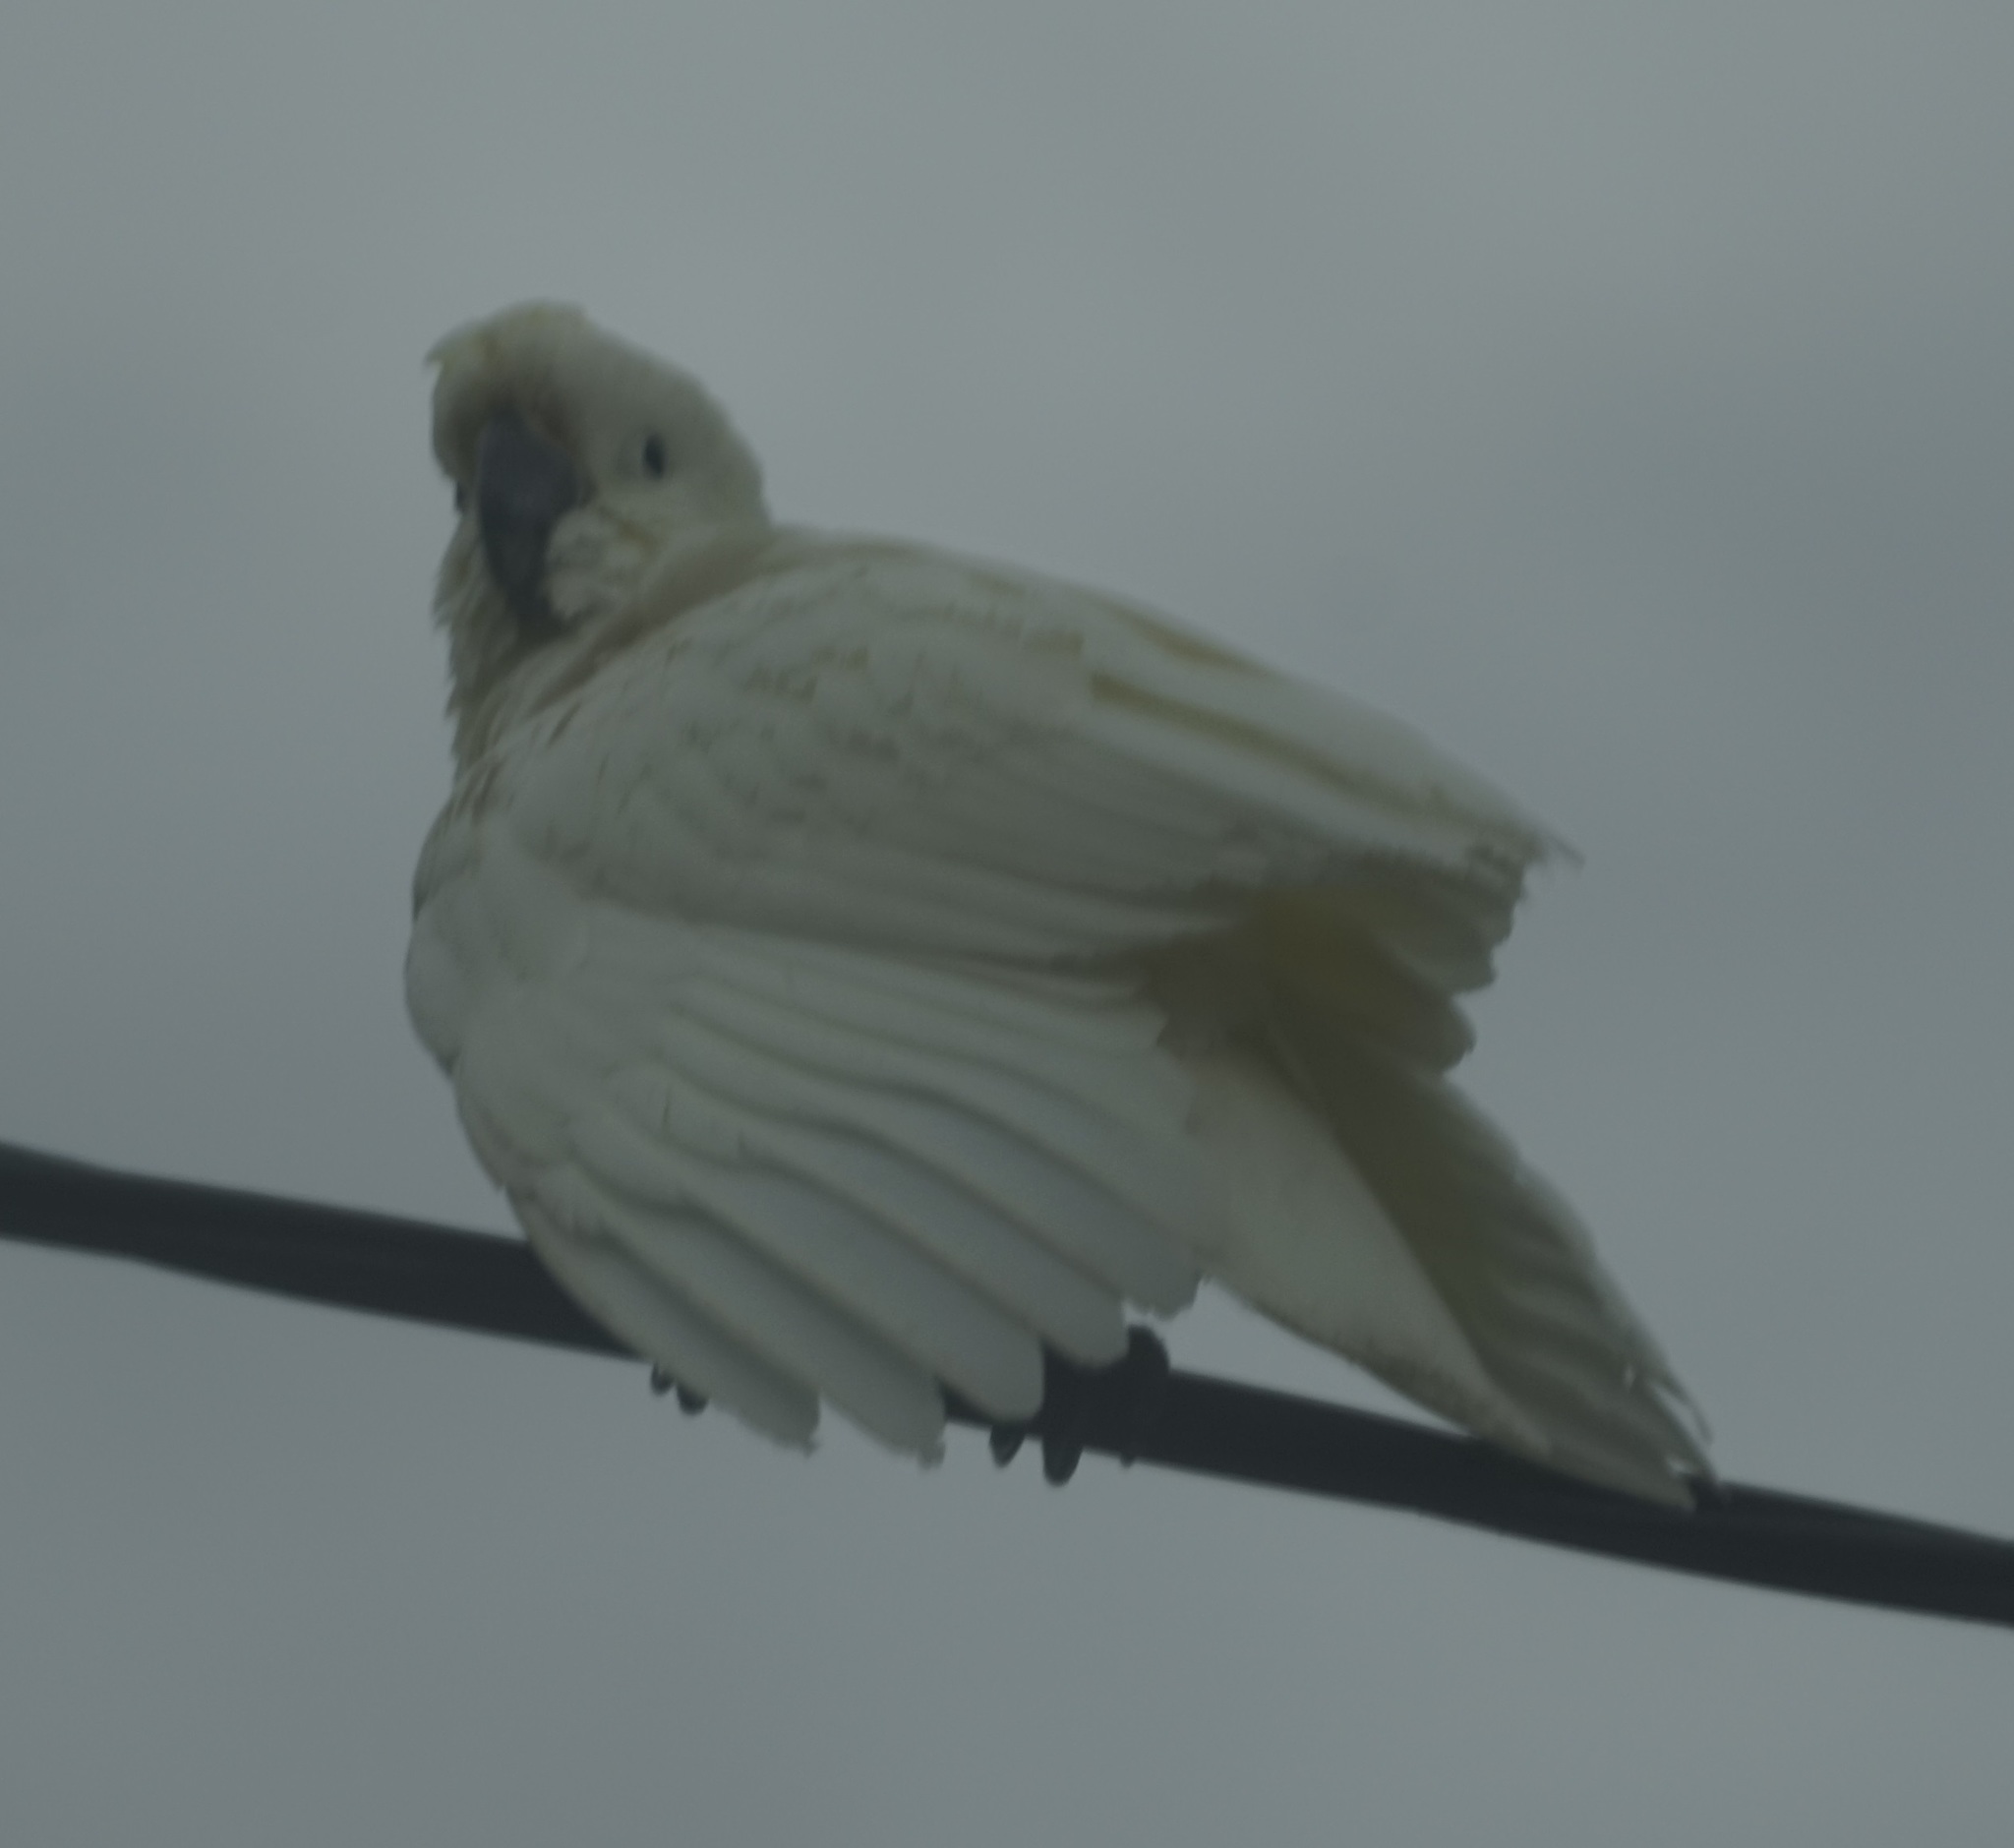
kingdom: Animalia
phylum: Chordata
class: Aves
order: Psittaciformes
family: Psittacidae
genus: Cacatua
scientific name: Cacatua galerita
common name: Sulphur-crested cockatoo
